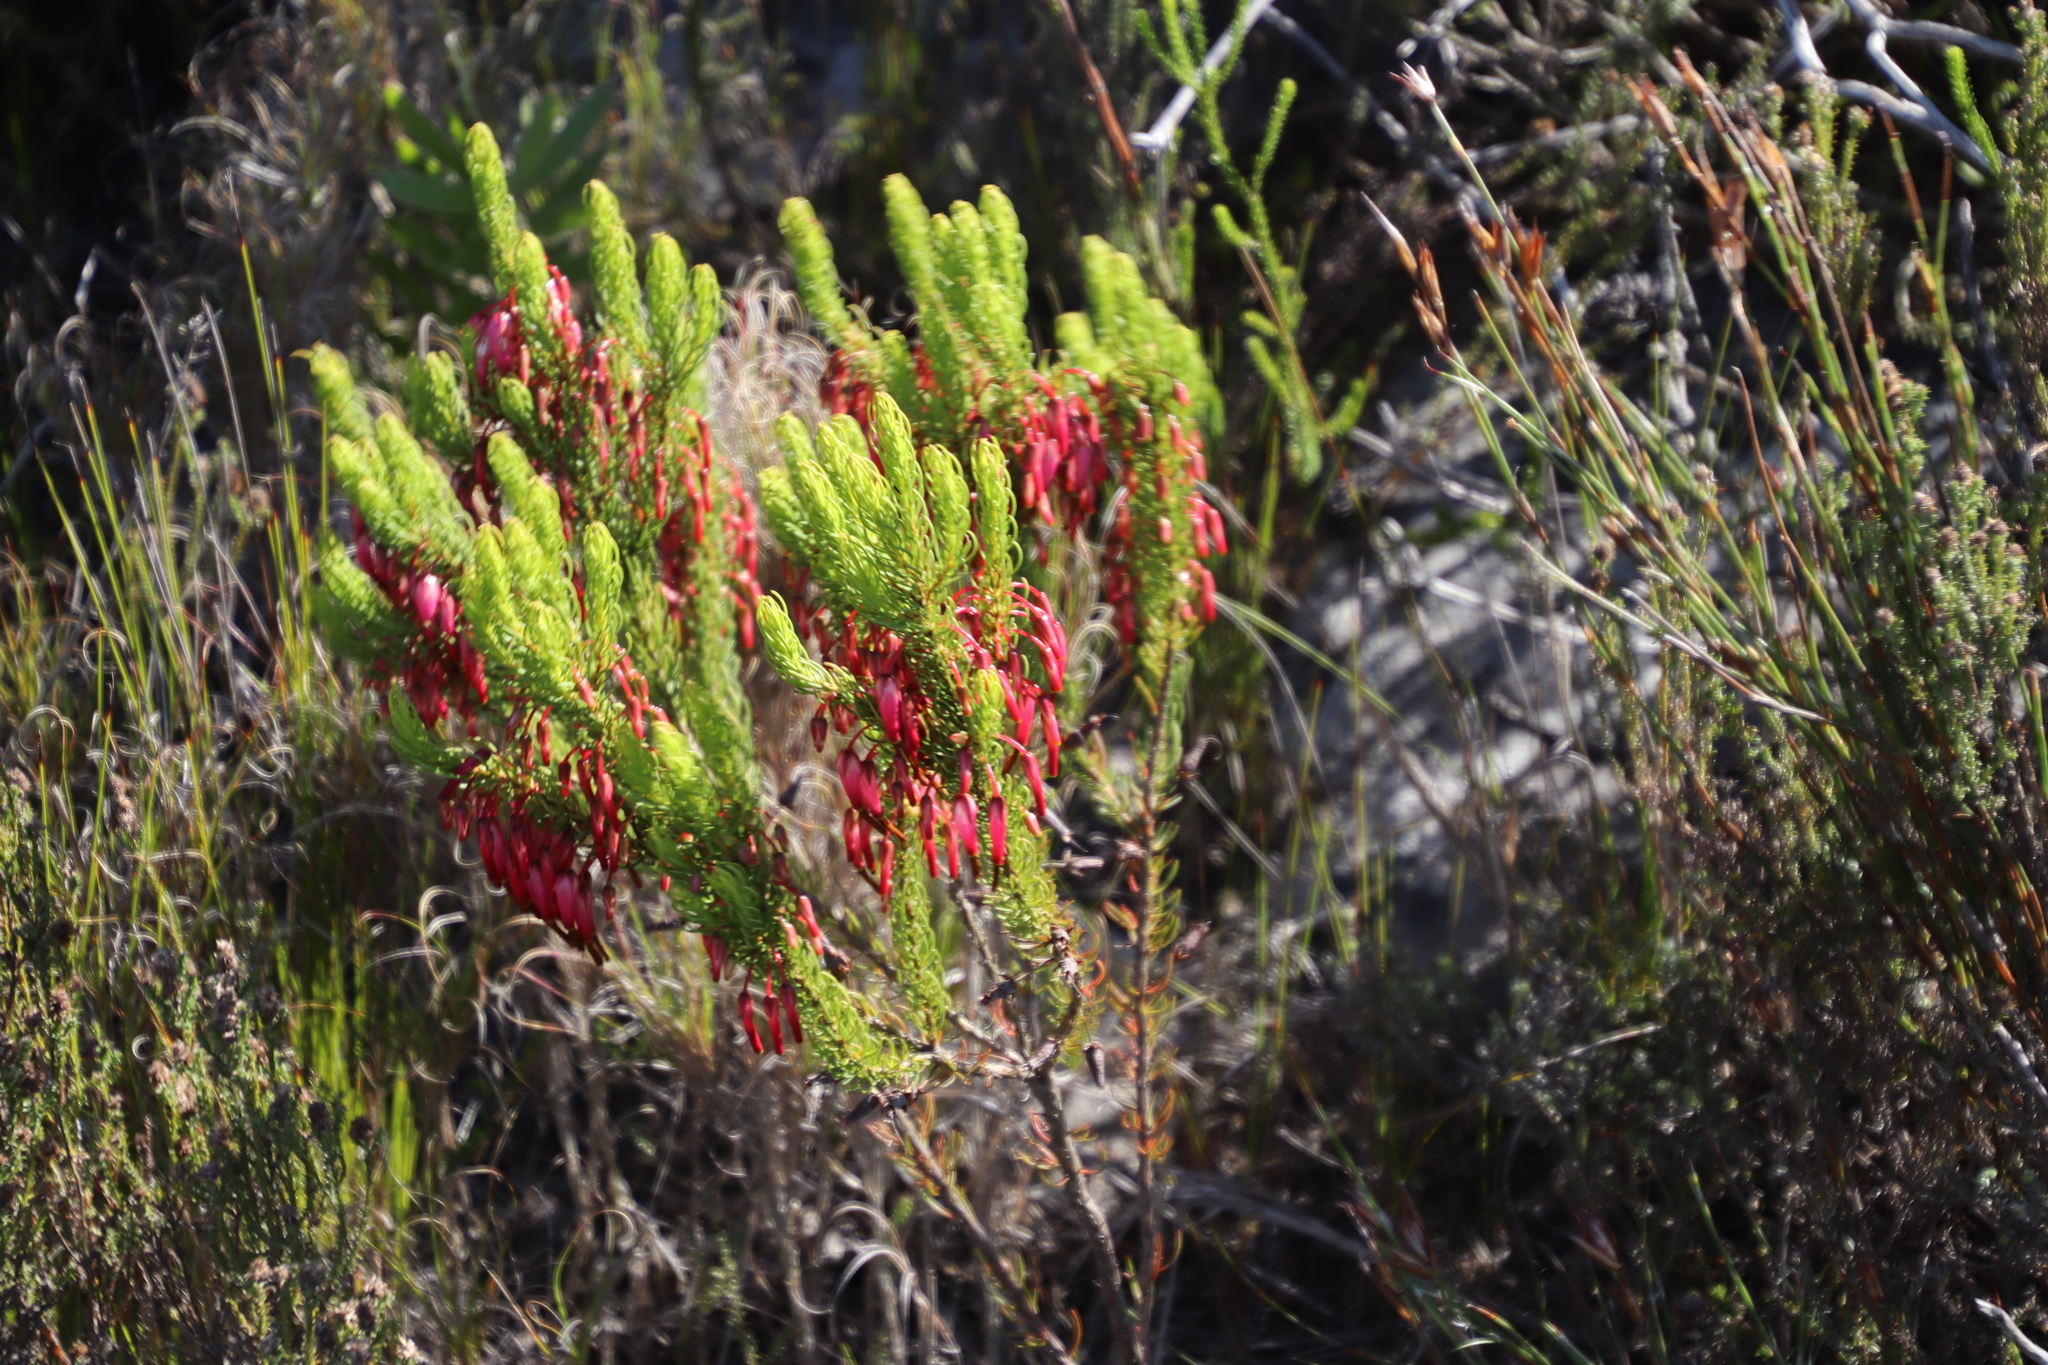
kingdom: Plantae
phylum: Tracheophyta
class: Magnoliopsida
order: Ericales
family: Ericaceae
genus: Erica
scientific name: Erica plukenetii
